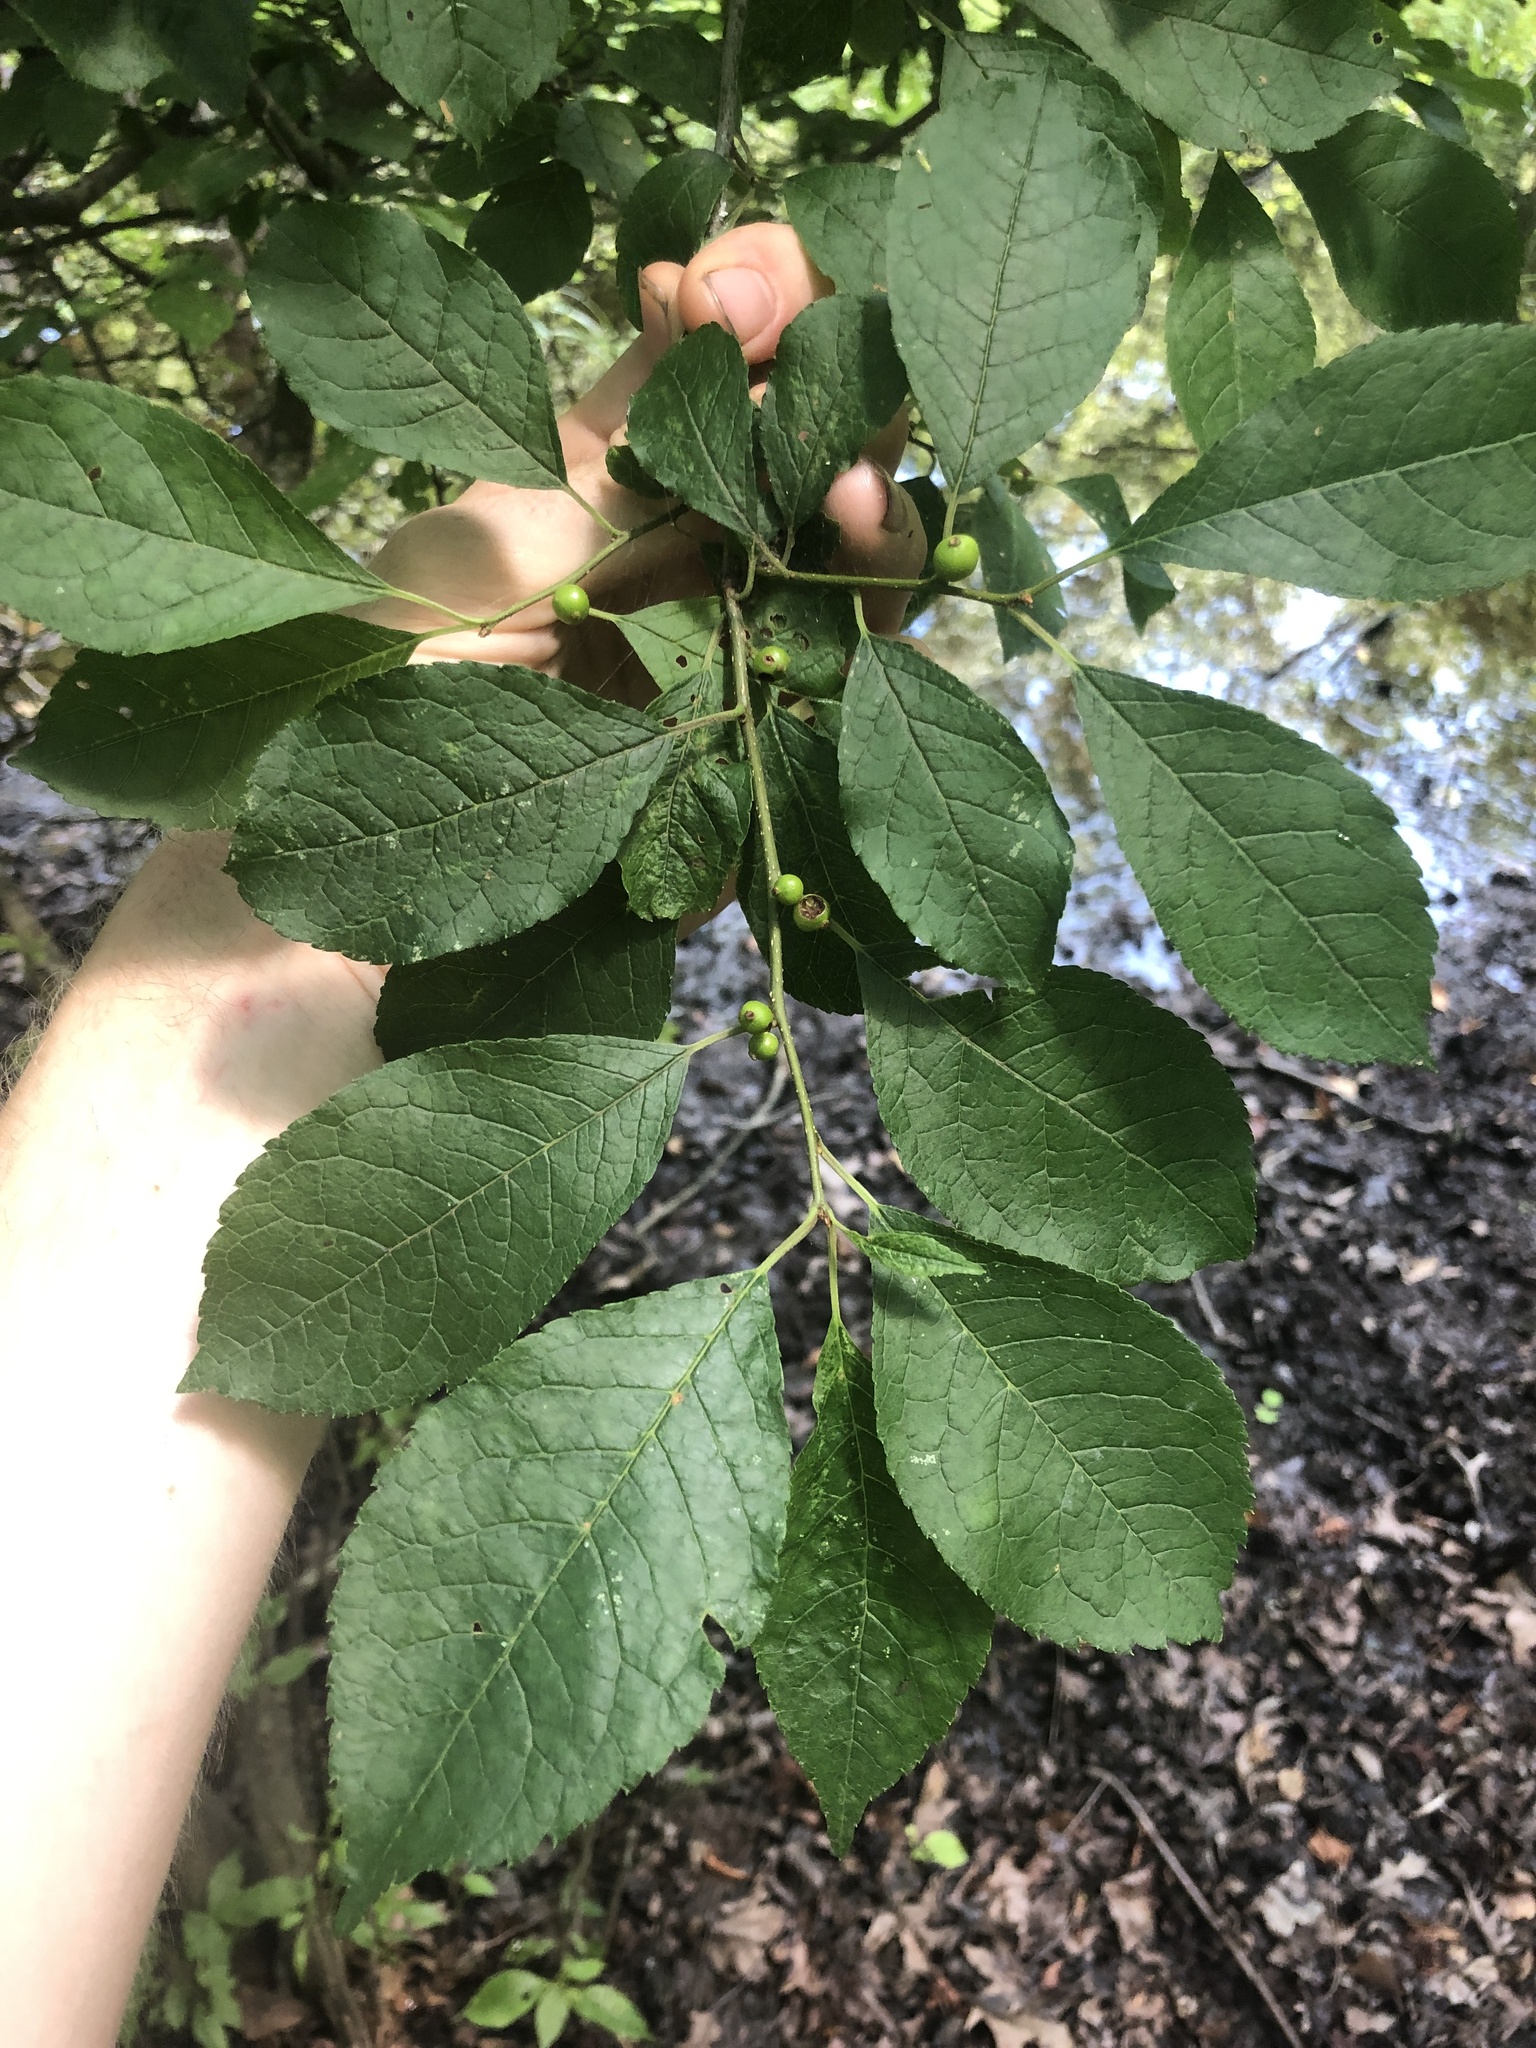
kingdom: Plantae
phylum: Tracheophyta
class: Magnoliopsida
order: Aquifoliales
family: Aquifoliaceae
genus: Ilex
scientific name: Ilex verticillata
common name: Virginia winterberry
